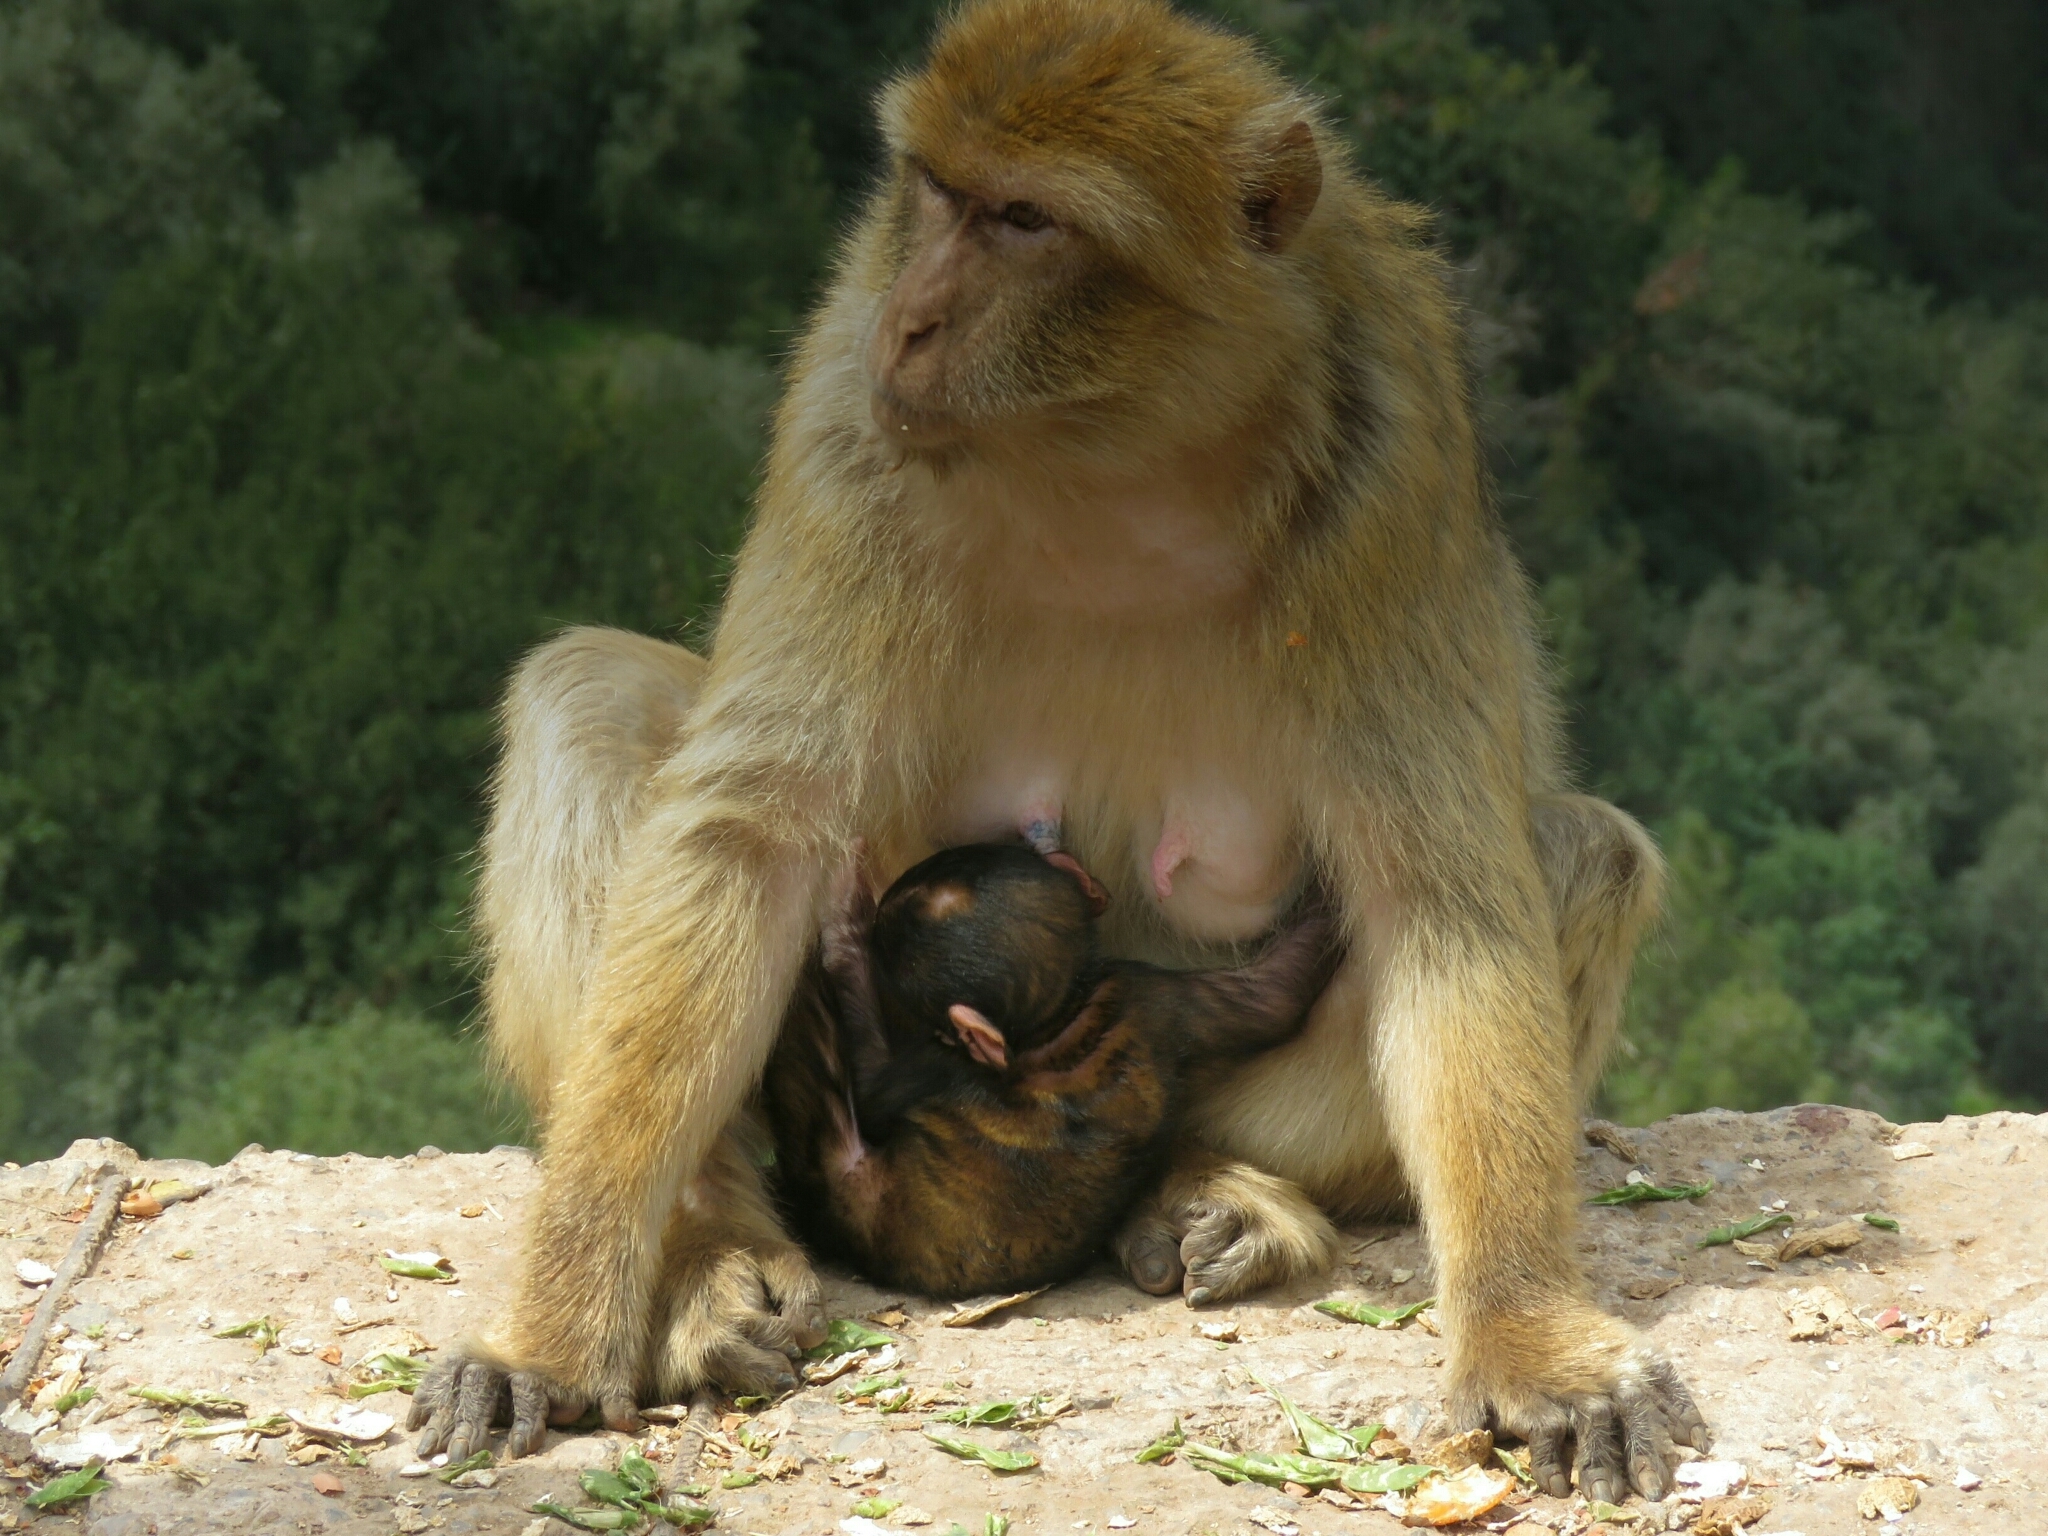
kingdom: Animalia
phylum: Chordata
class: Mammalia
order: Primates
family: Cercopithecidae
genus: Macaca
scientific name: Macaca sylvanus
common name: Barbary macaque
